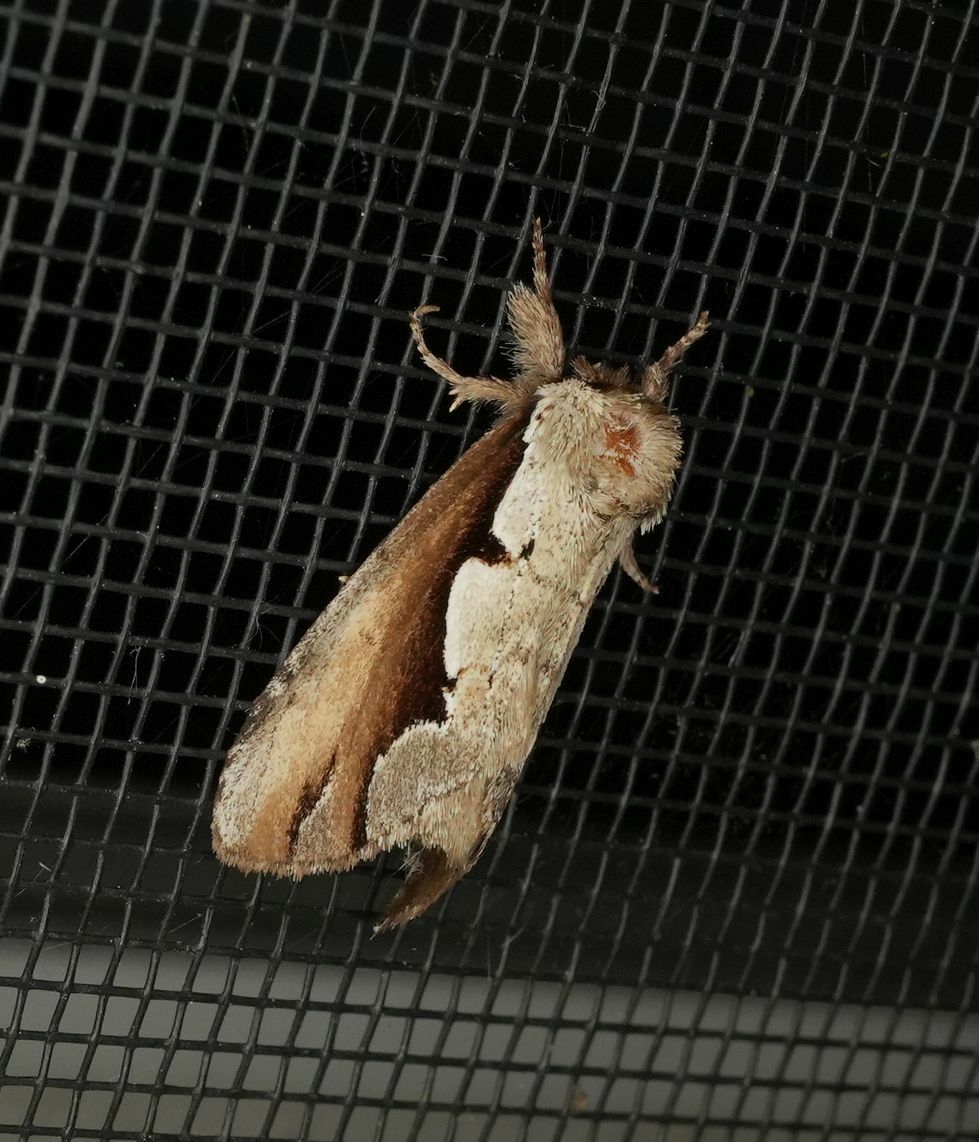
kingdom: Animalia
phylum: Arthropoda
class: Insecta
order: Lepidoptera
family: Notodontidae
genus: Nerice
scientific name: Nerice bidentata
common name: Double-toothed prominent
